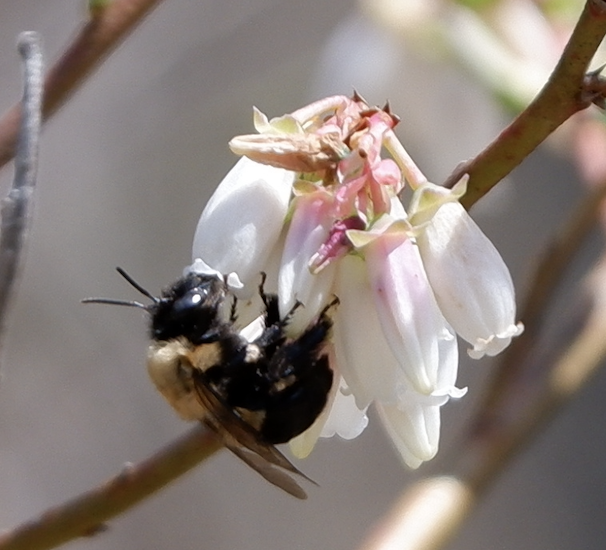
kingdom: Animalia
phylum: Arthropoda
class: Insecta
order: Hymenoptera
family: Apidae
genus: Habropoda
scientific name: Habropoda laboriosa
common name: Southeastern blueberry bee
